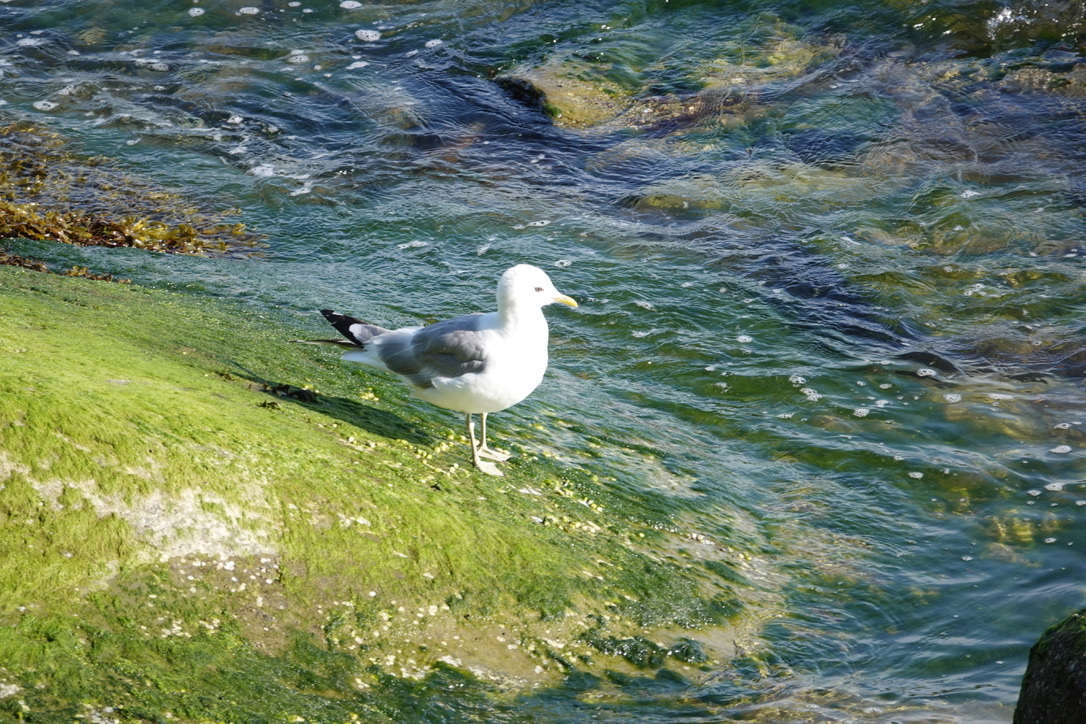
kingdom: Animalia
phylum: Chordata
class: Aves
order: Charadriiformes
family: Laridae
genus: Larus
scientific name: Larus brachyrhynchus
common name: Short-billed gull
